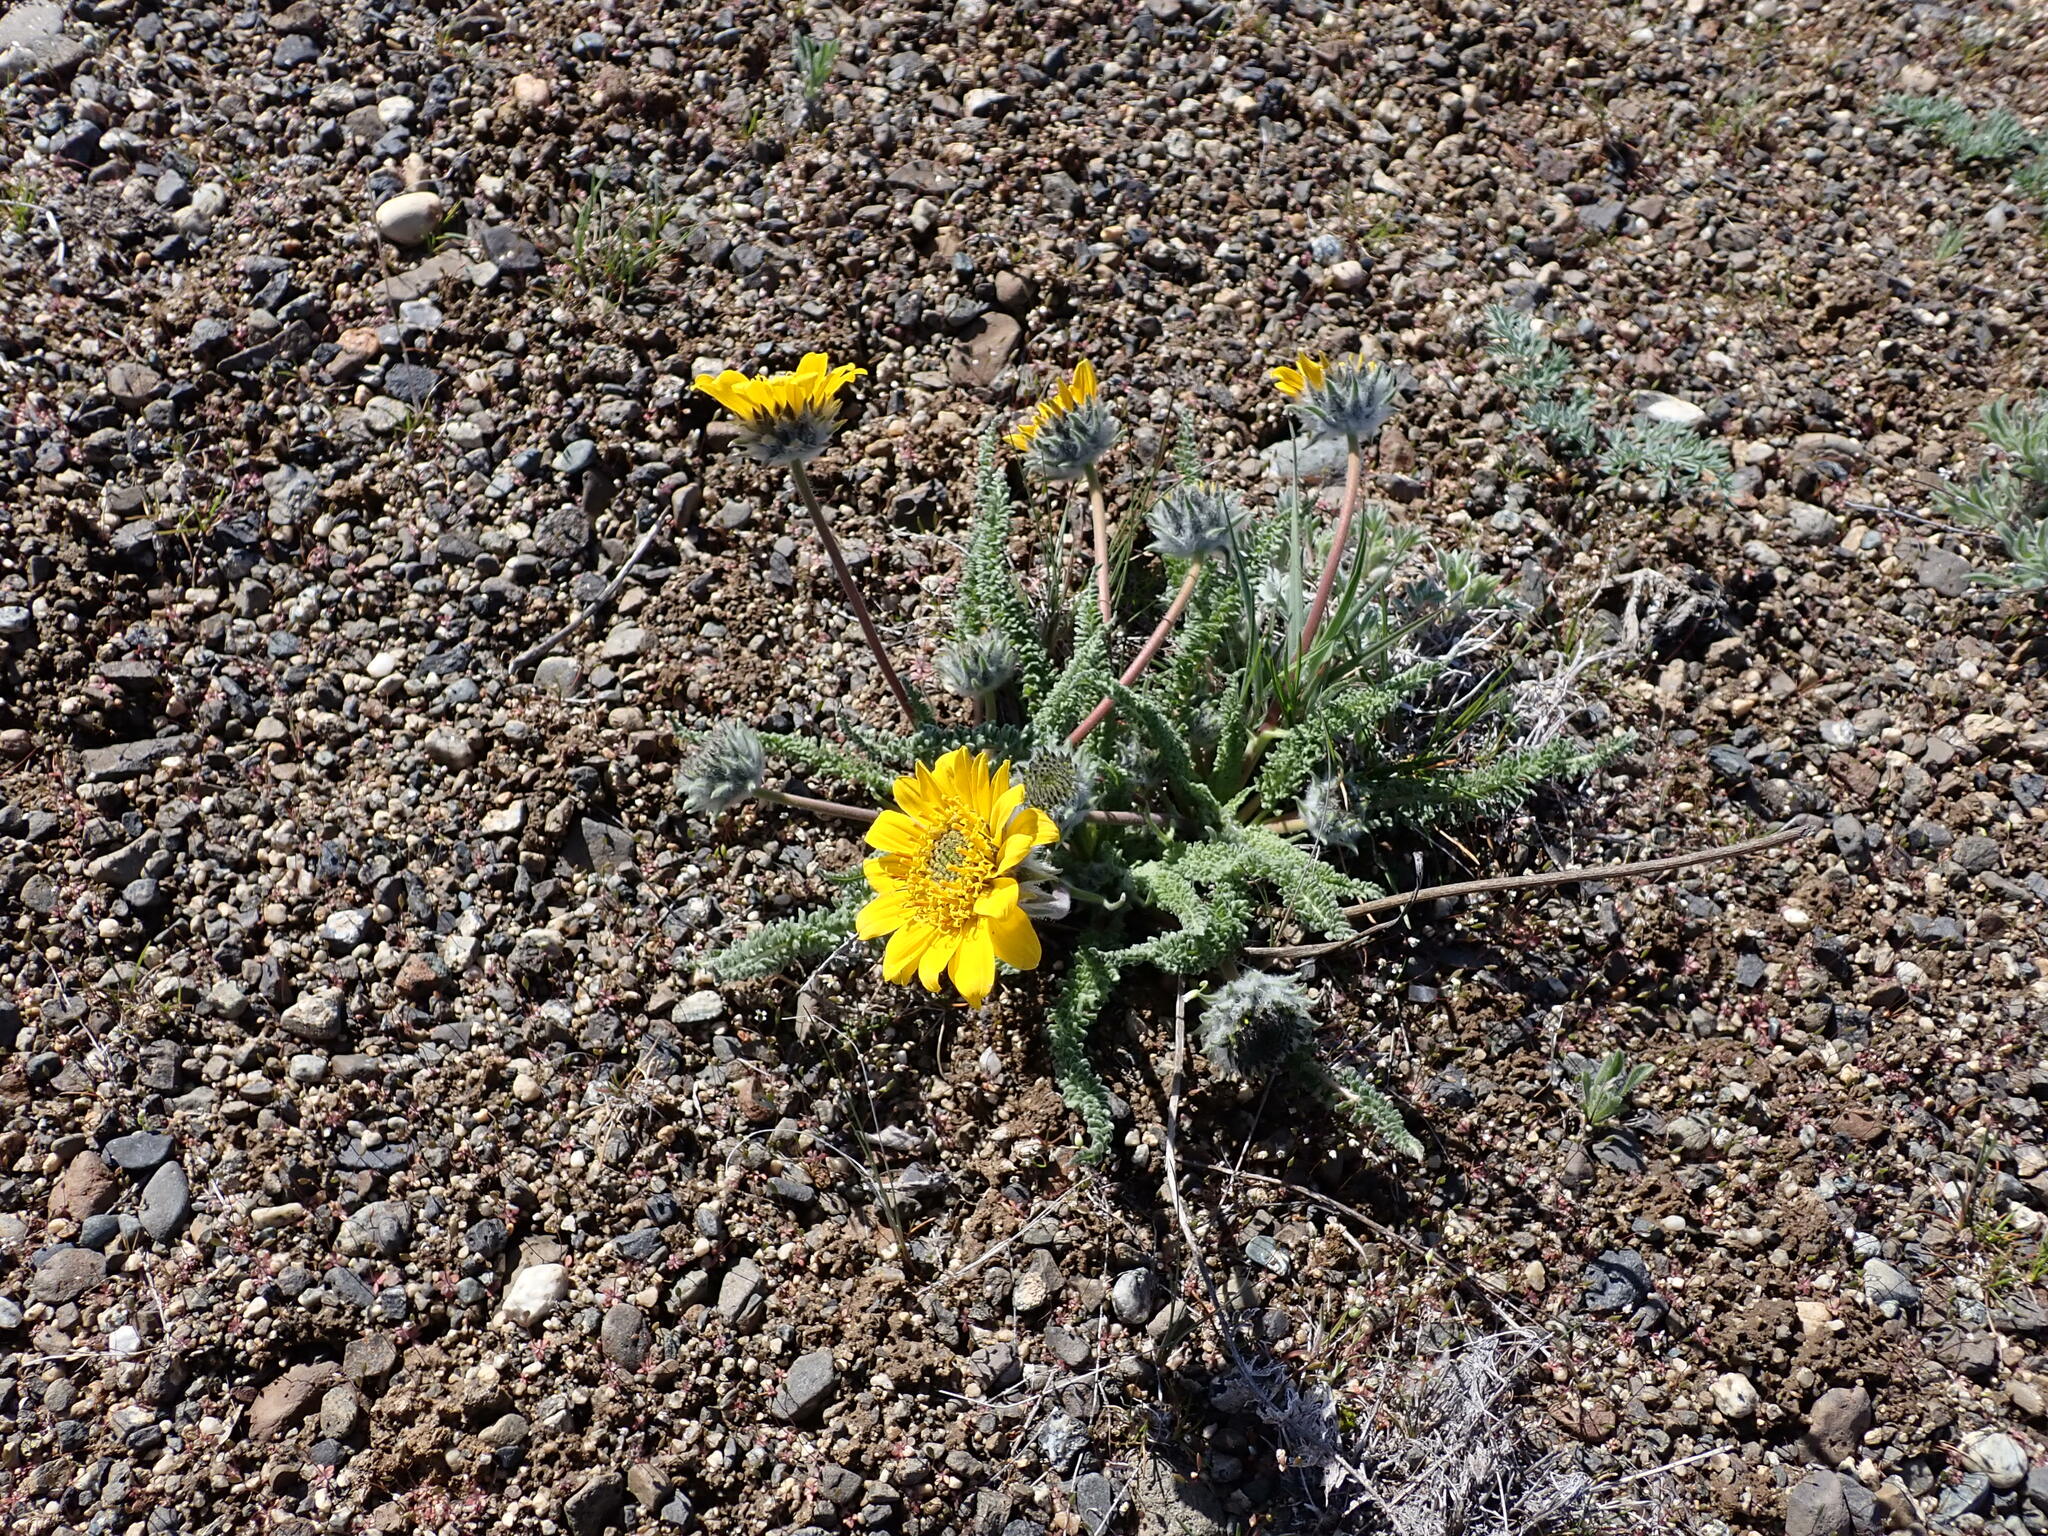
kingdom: Plantae
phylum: Tracheophyta
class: Magnoliopsida
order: Asterales
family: Asteraceae
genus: Balsamorhiza
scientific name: Balsamorhiza hookeri
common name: Hooker's balsamroot
